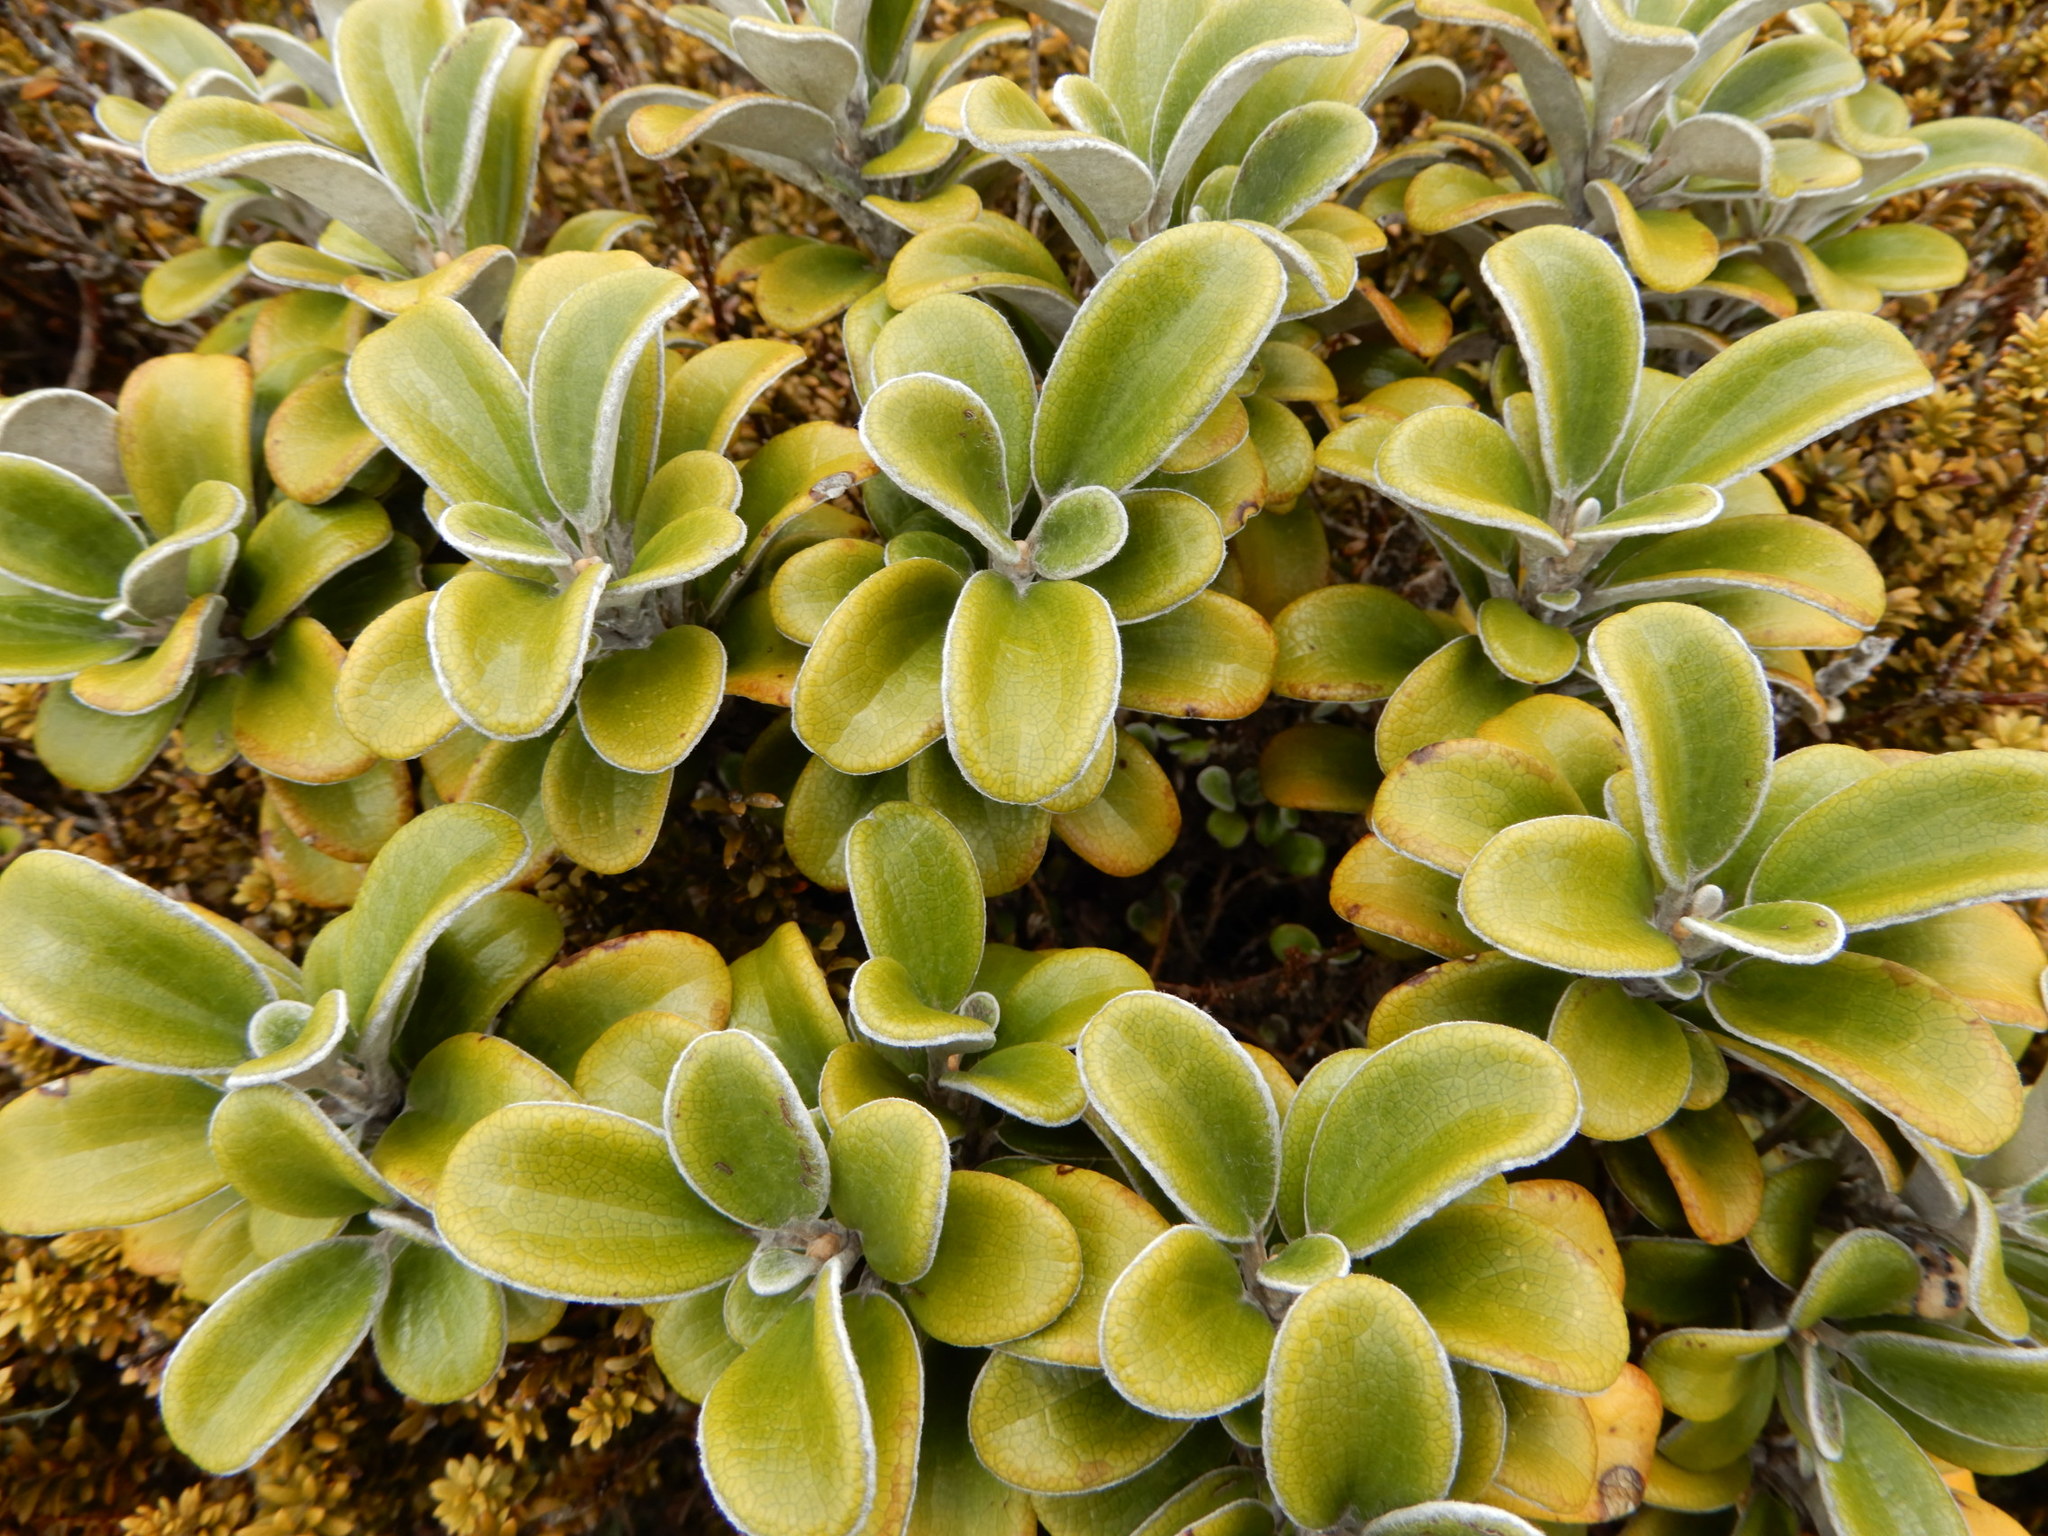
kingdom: Plantae
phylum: Tracheophyta
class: Magnoliopsida
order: Asterales
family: Asteraceae
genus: Brachyglottis
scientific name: Brachyglottis bidwillii
